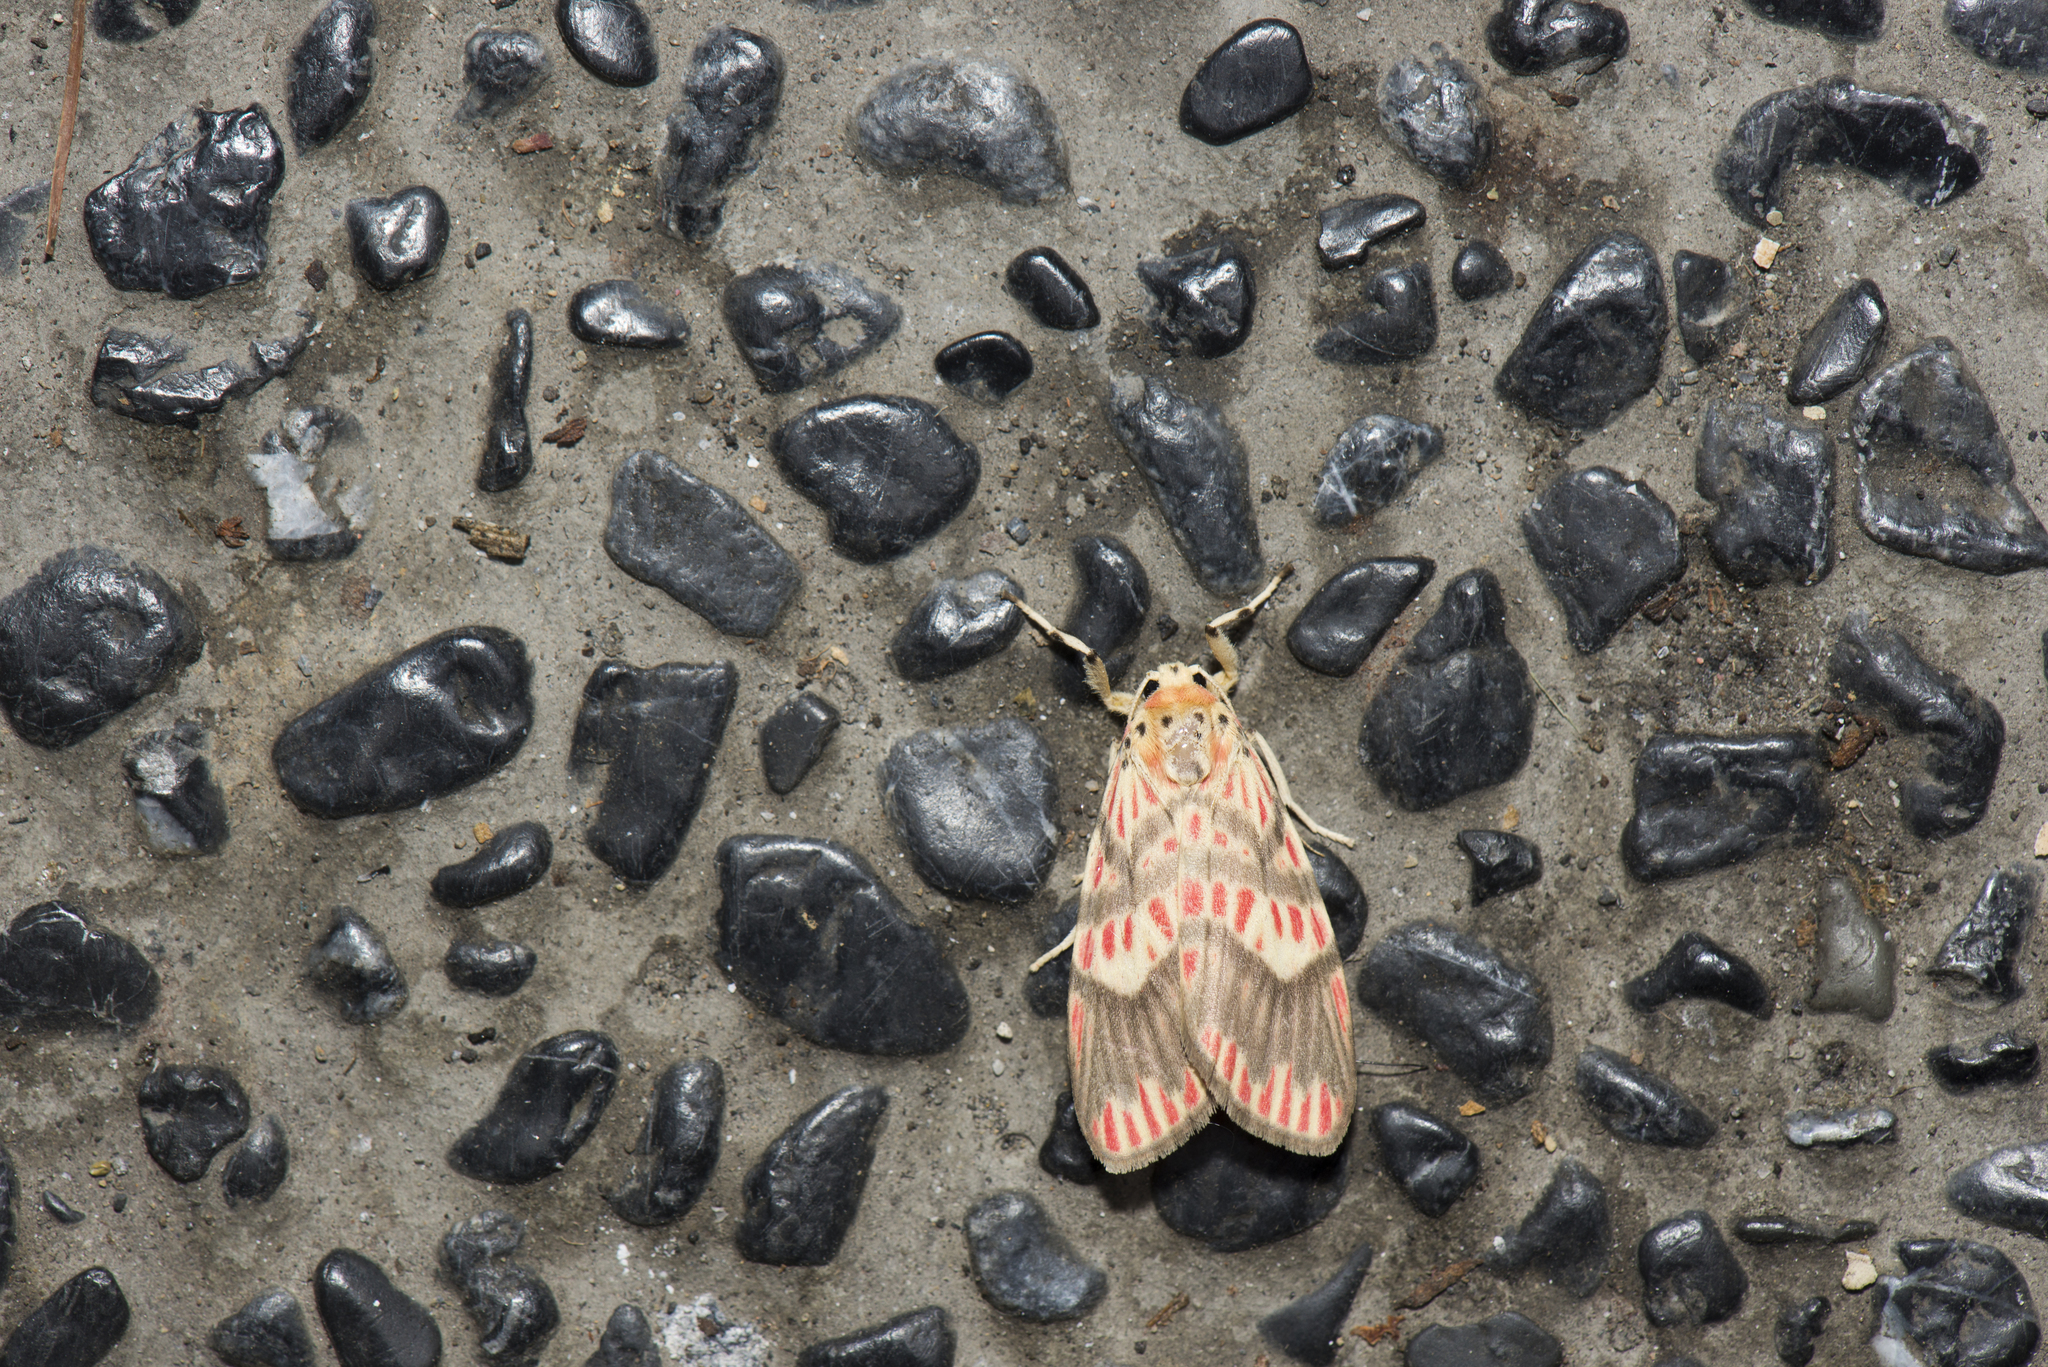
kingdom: Animalia
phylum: Arthropoda
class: Insecta
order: Lepidoptera
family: Erebidae
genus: Barsine
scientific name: Barsine fuscozonata
